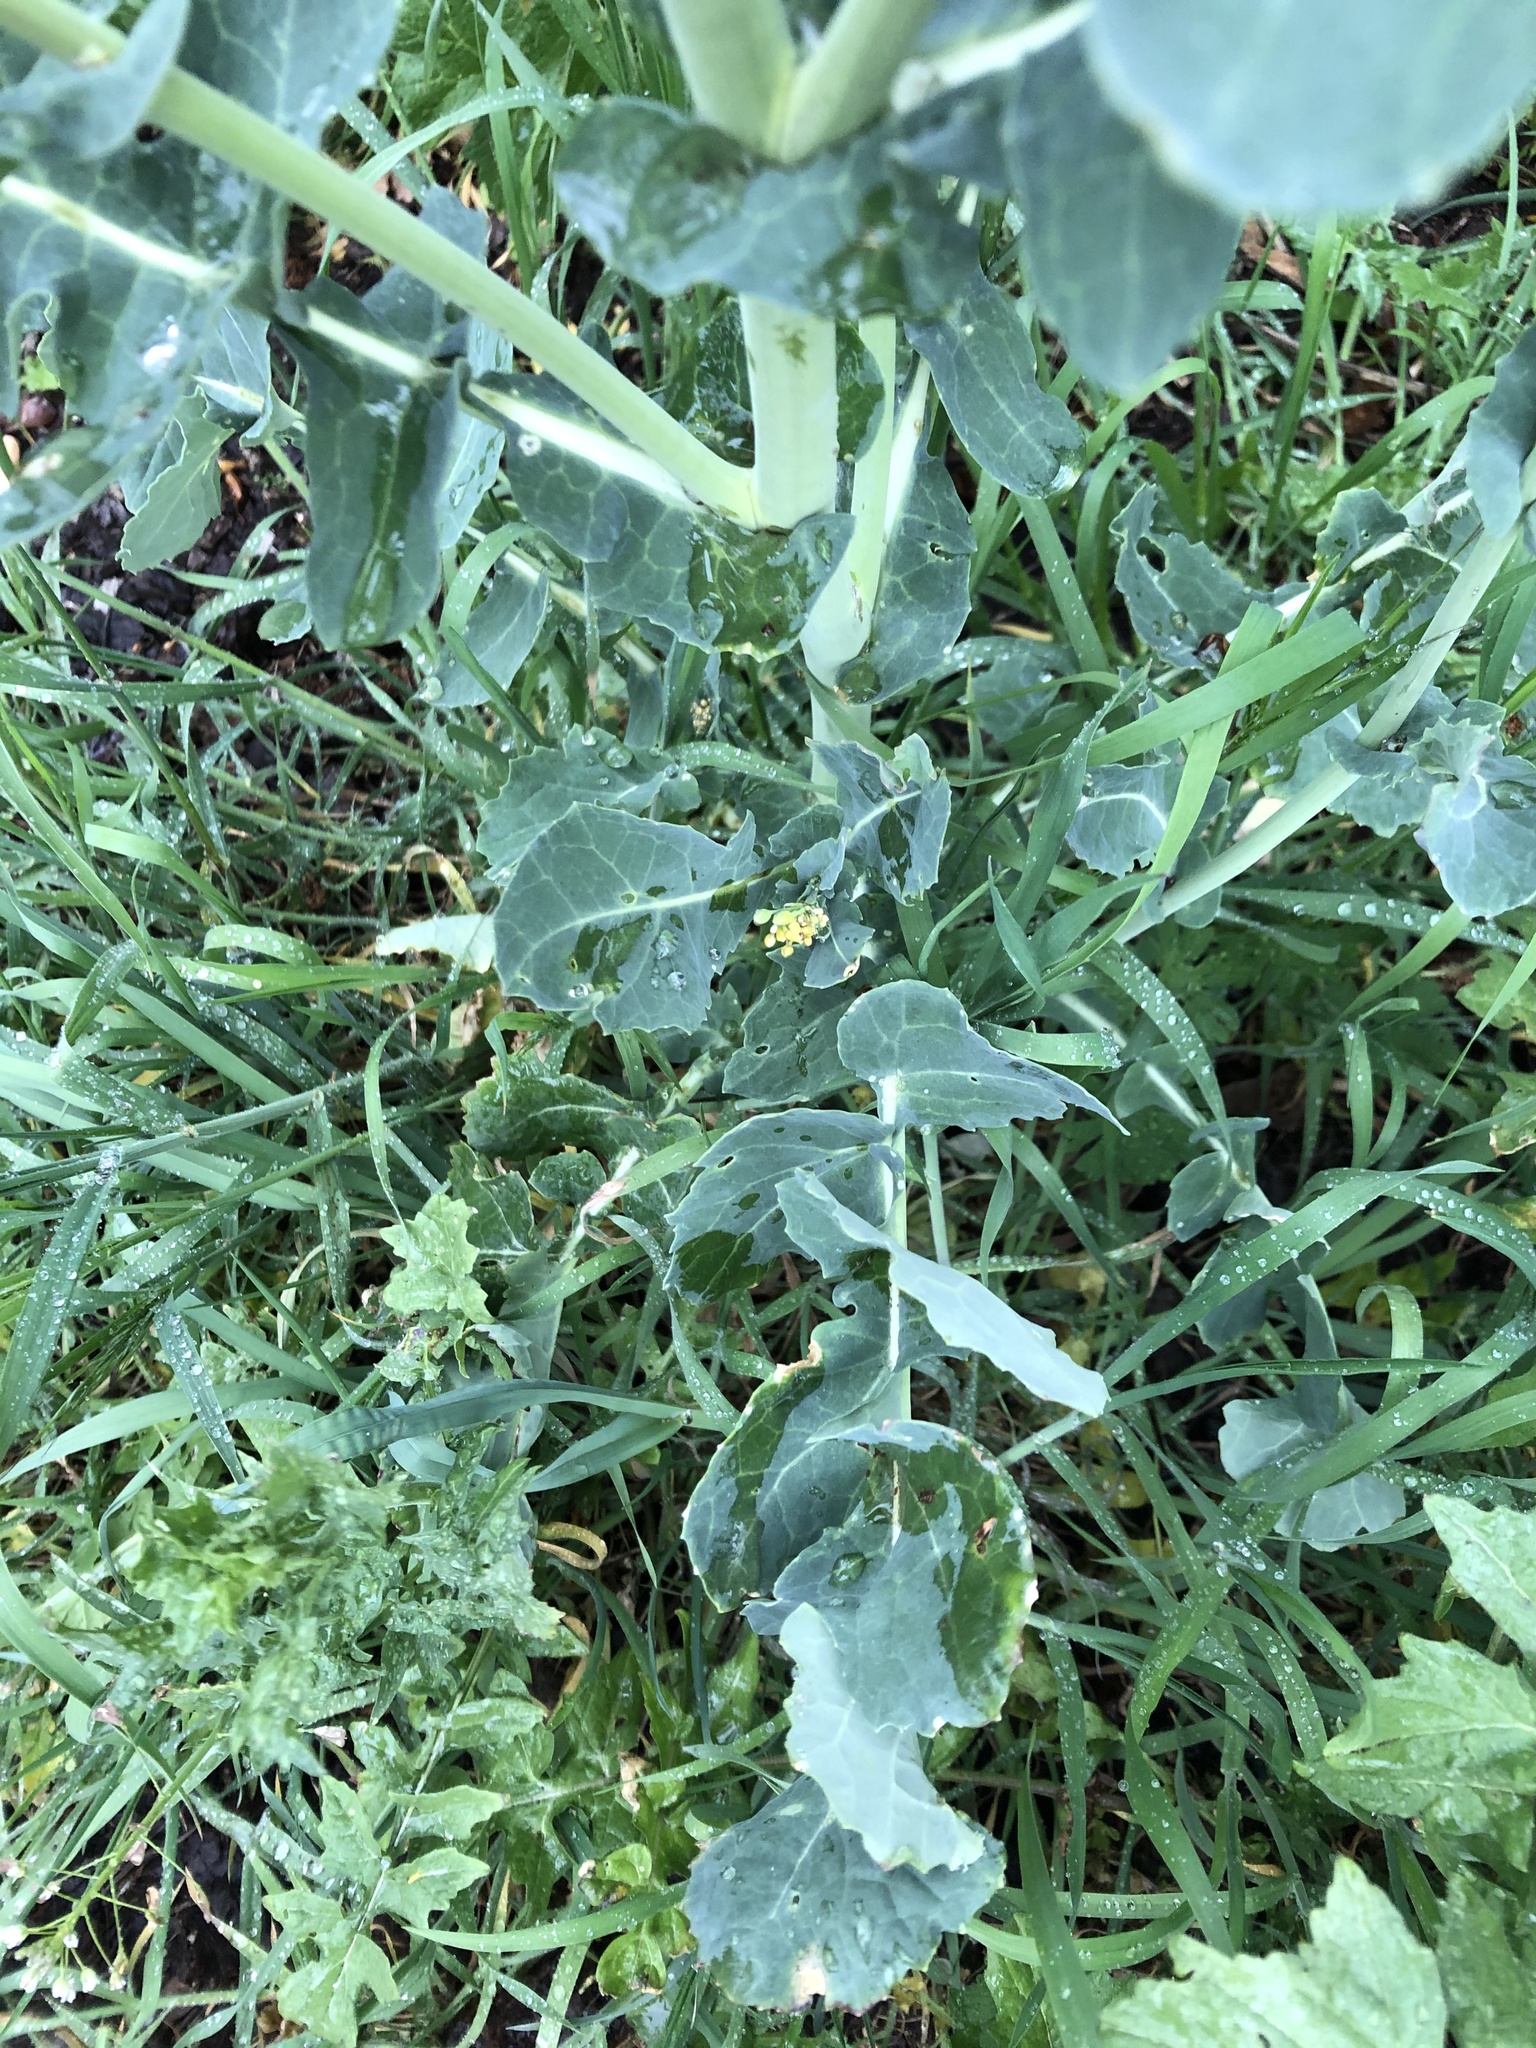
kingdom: Plantae
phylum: Tracheophyta
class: Magnoliopsida
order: Brassicales
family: Brassicaceae
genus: Brassica
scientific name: Brassica napus
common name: Rape
